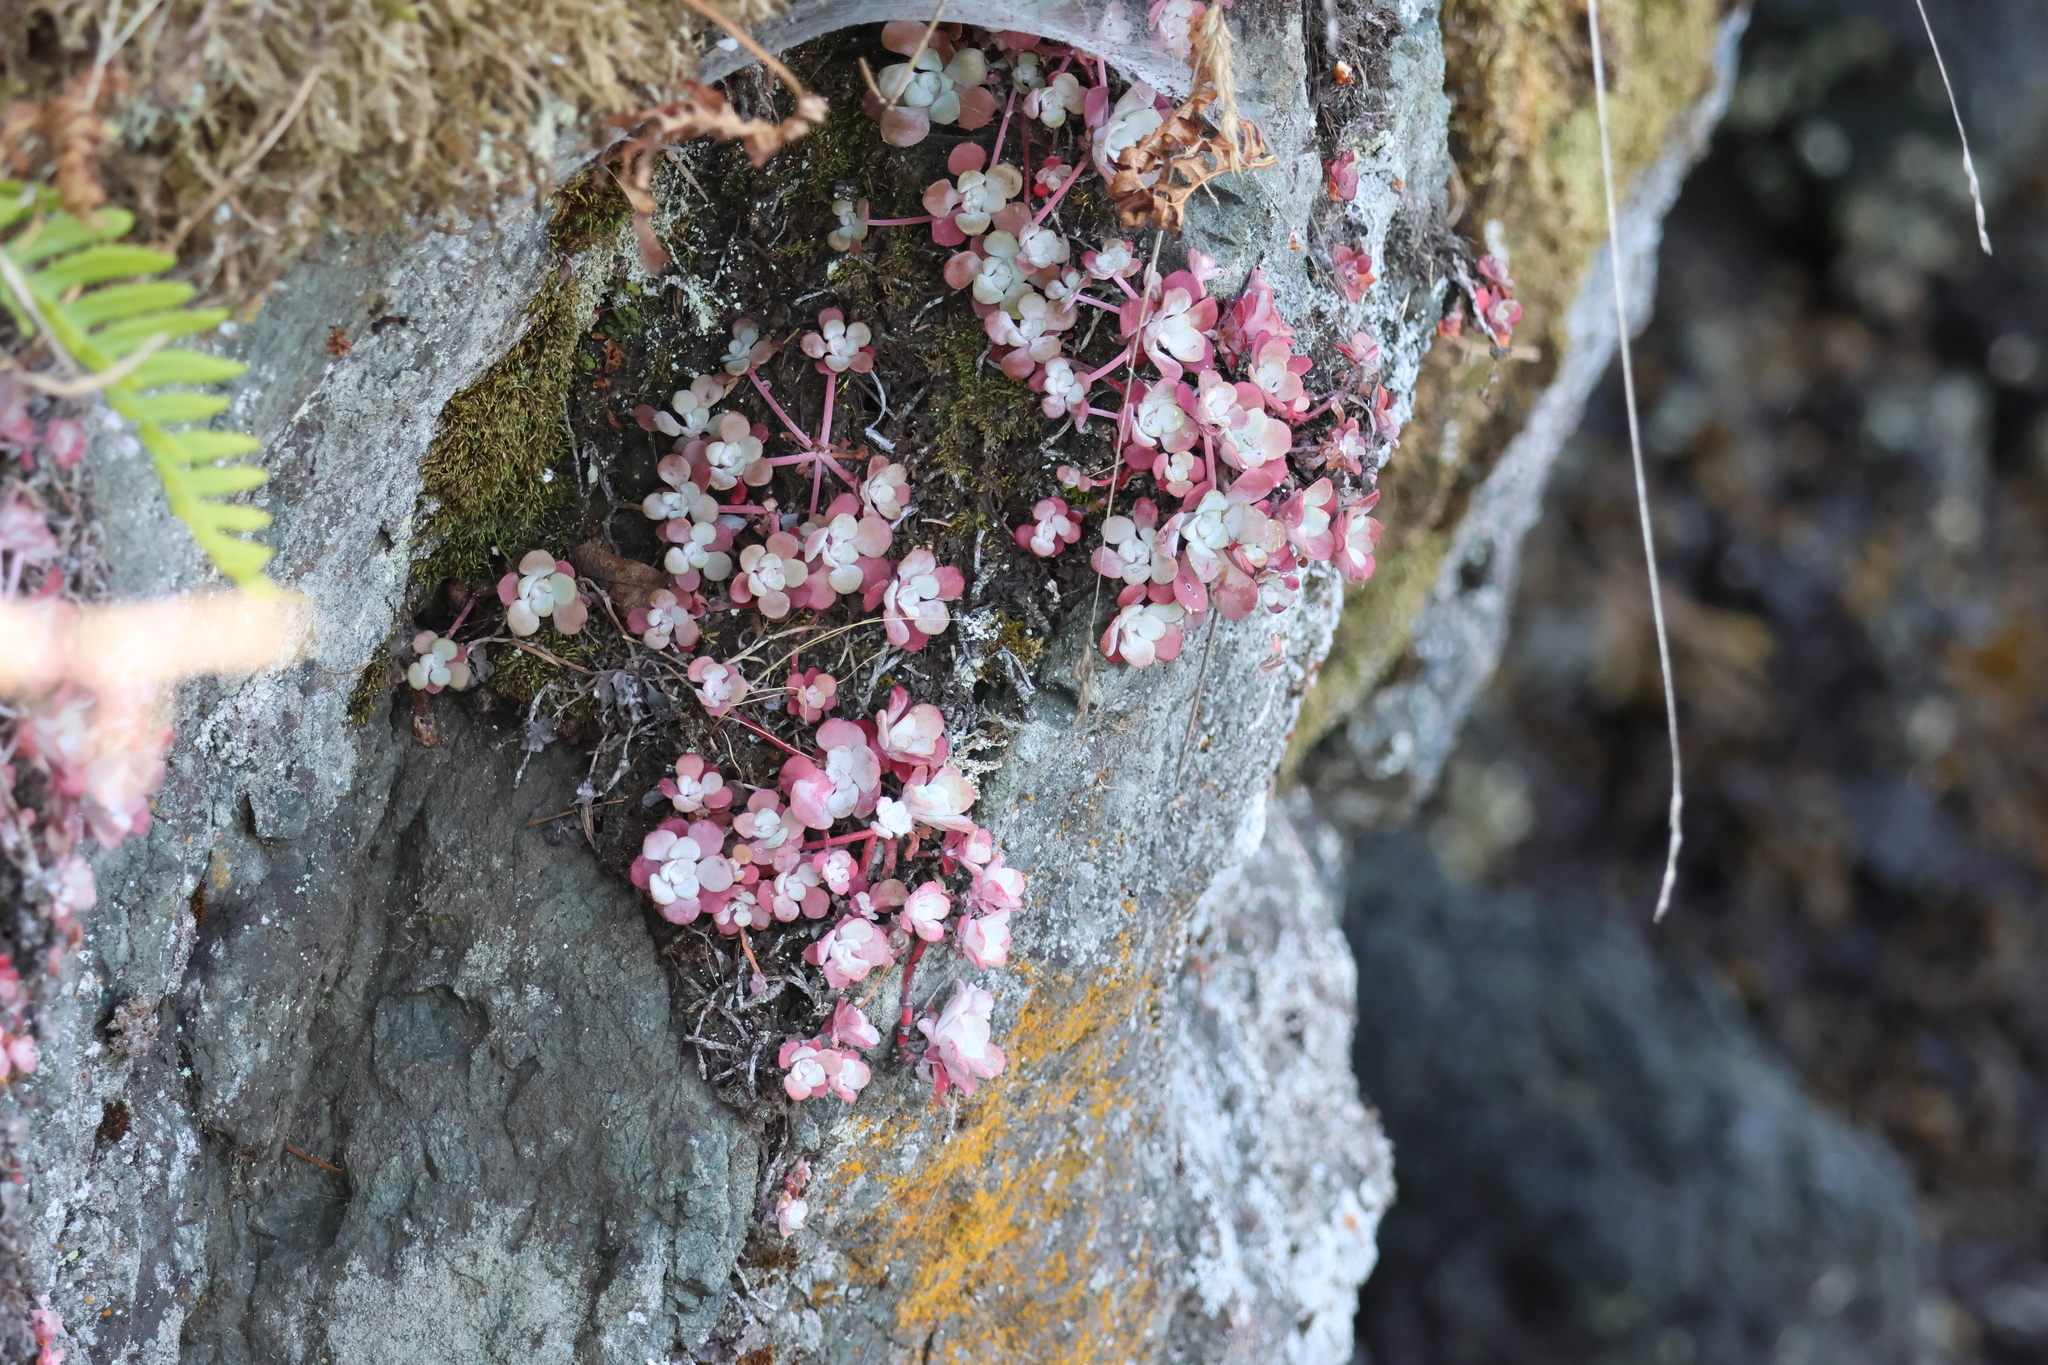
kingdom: Plantae
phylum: Tracheophyta
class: Magnoliopsida
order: Saxifragales
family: Crassulaceae
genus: Sedum
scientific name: Sedum spathulifolium
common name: Colorado stonecrop
